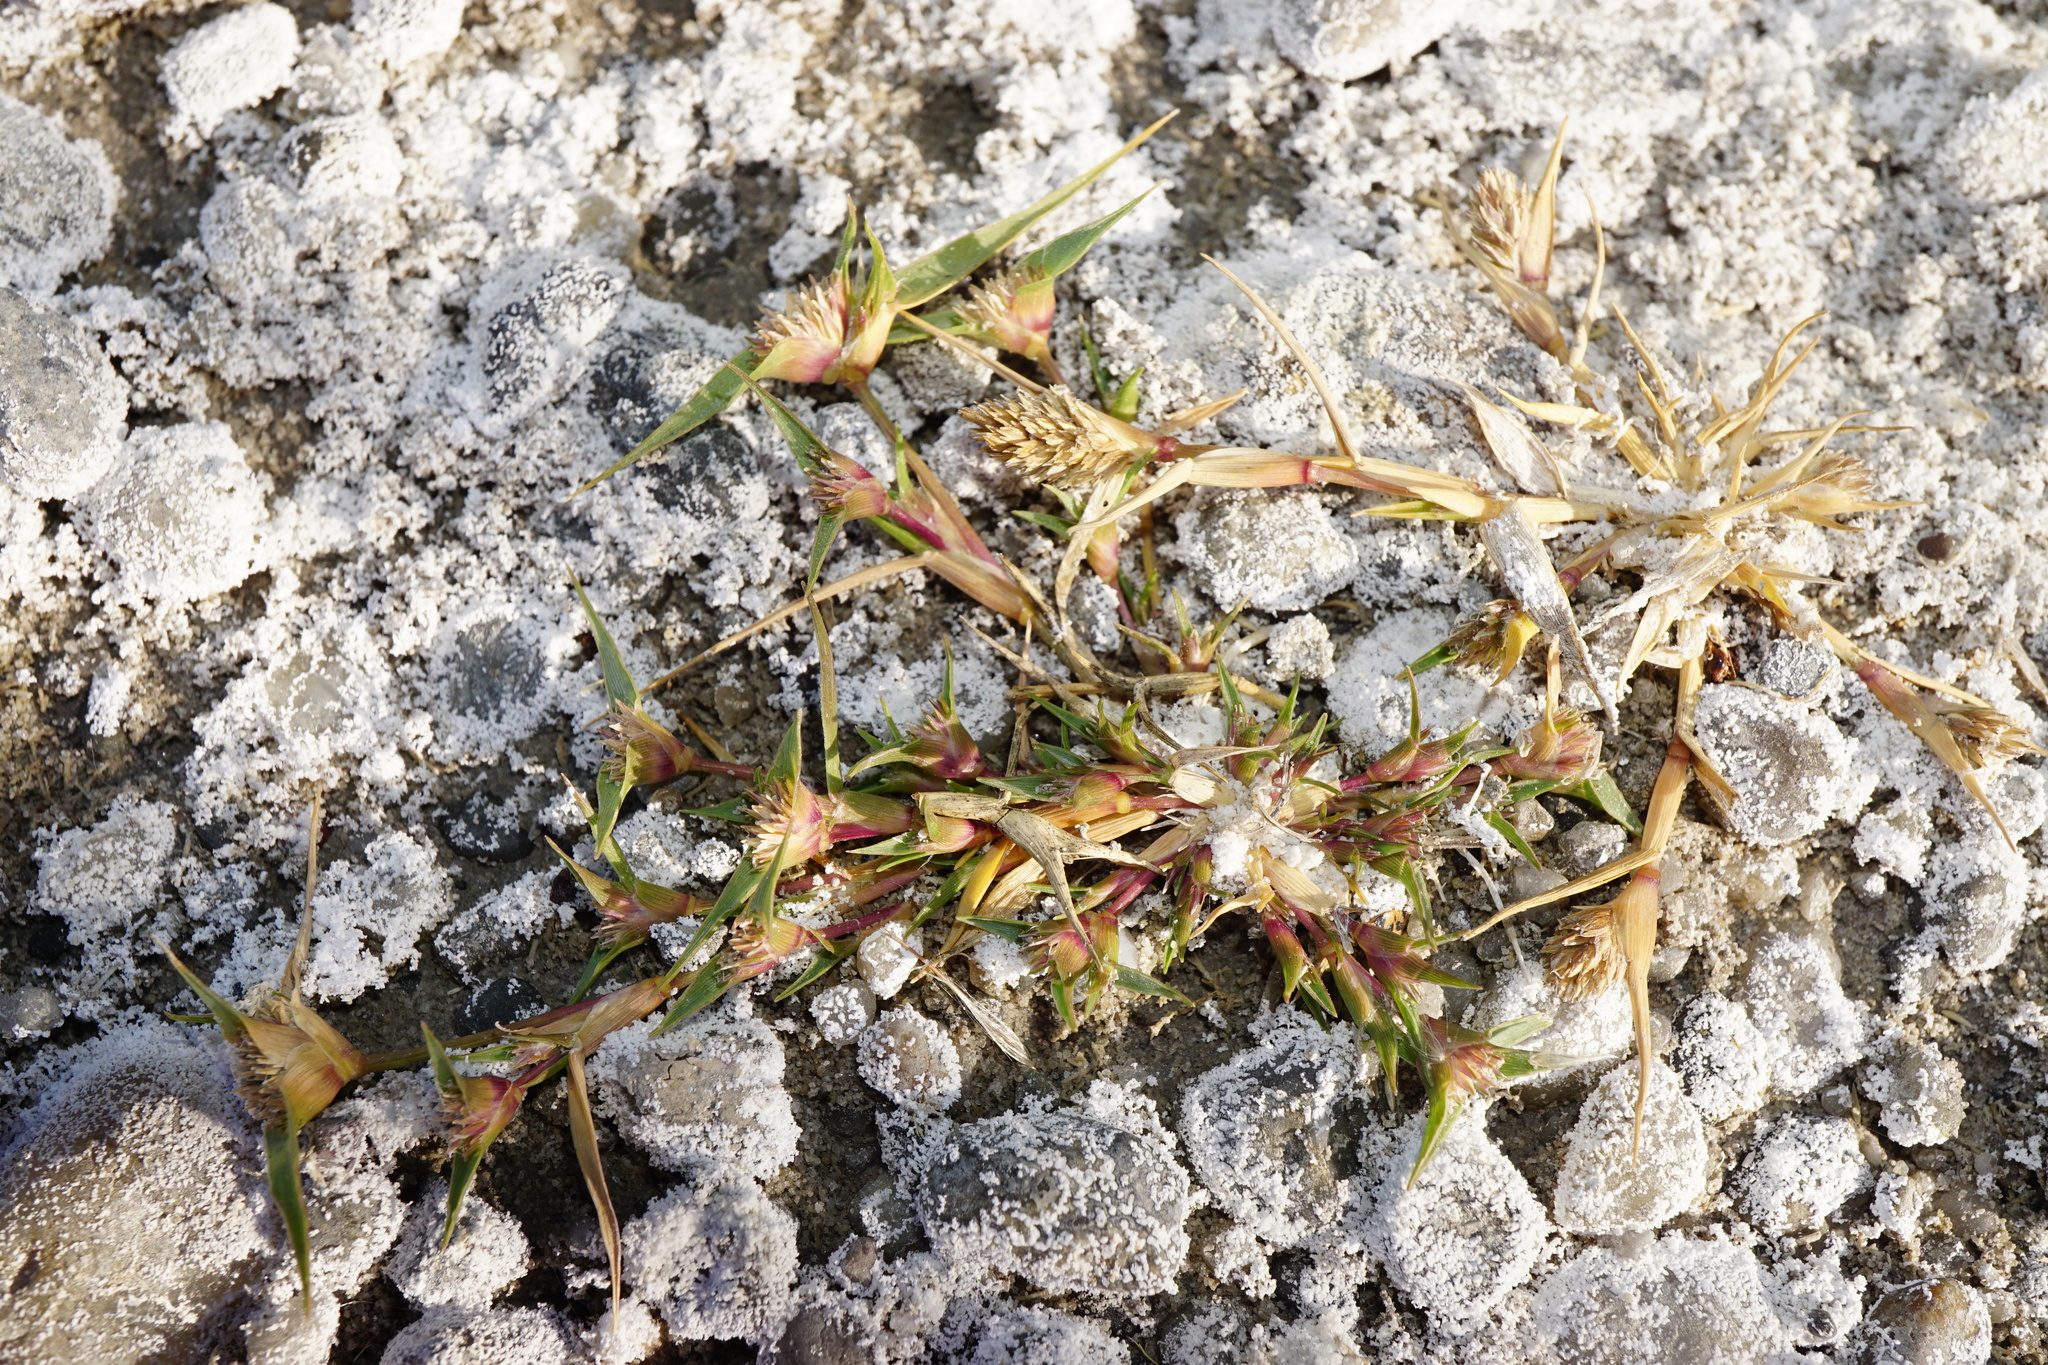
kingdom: Plantae
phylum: Tracheophyta
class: Liliopsida
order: Poales
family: Poaceae
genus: Sporobolus
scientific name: Sporobolus aculeatus
